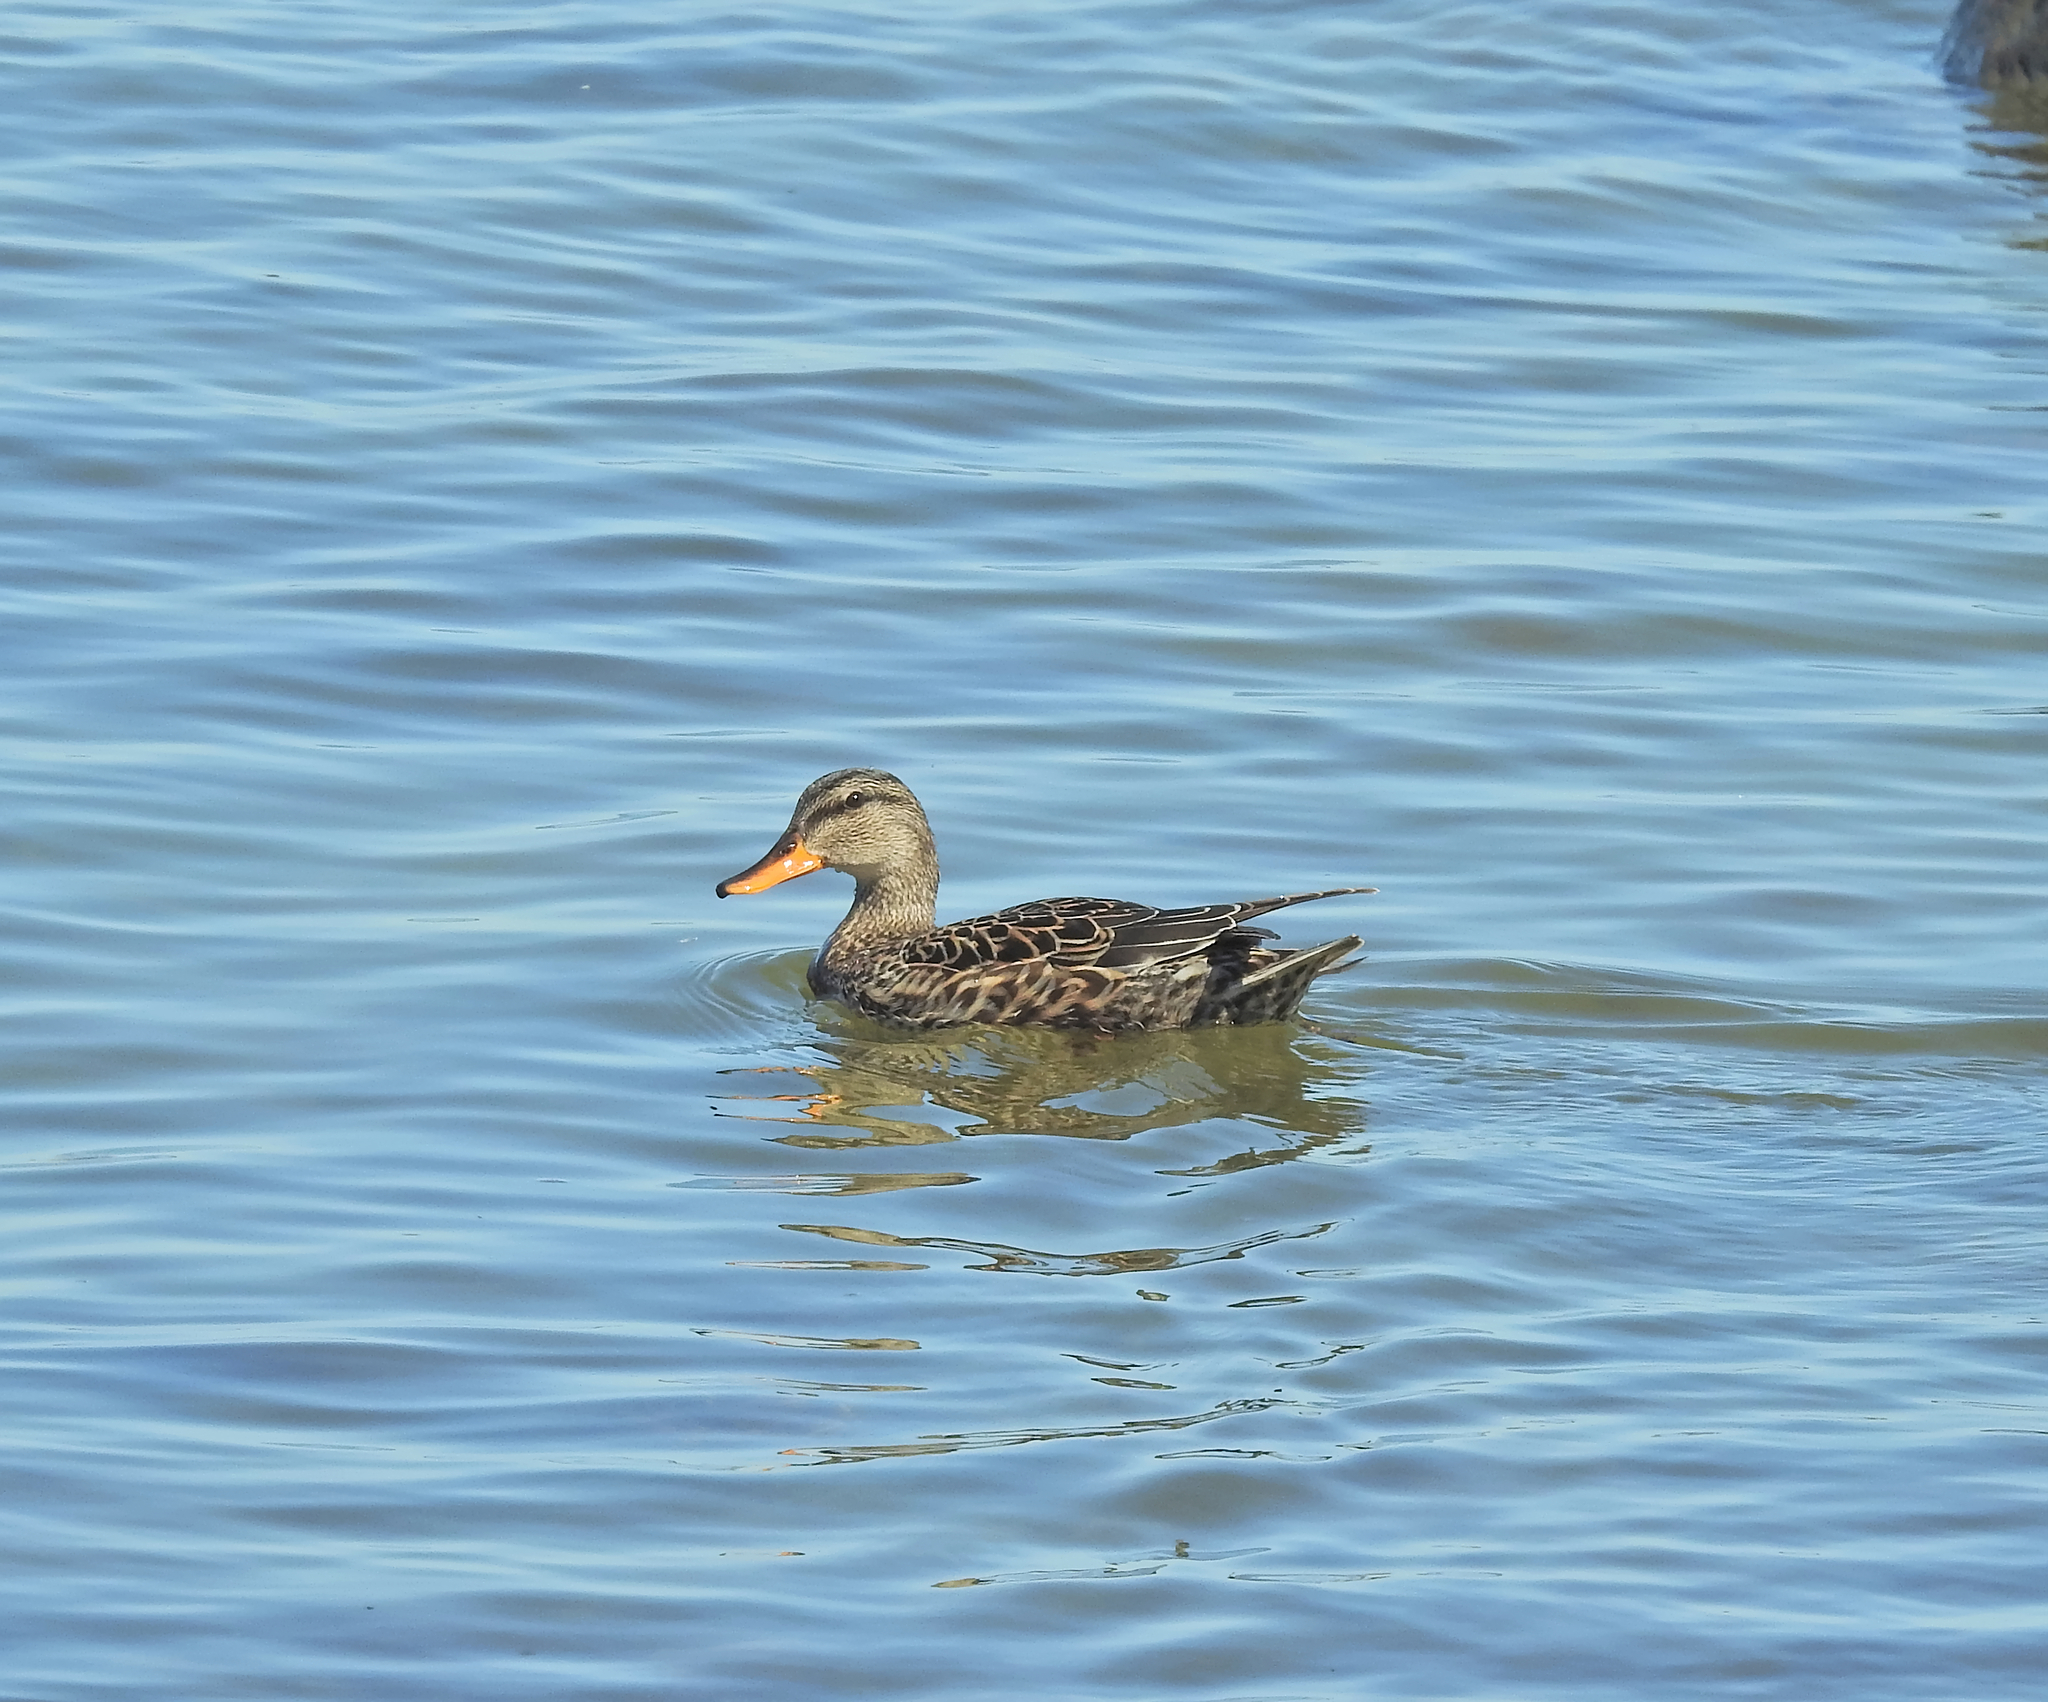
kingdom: Animalia
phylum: Chordata
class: Aves
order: Anseriformes
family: Anatidae
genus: Mareca
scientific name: Mareca strepera
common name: Gadwall
